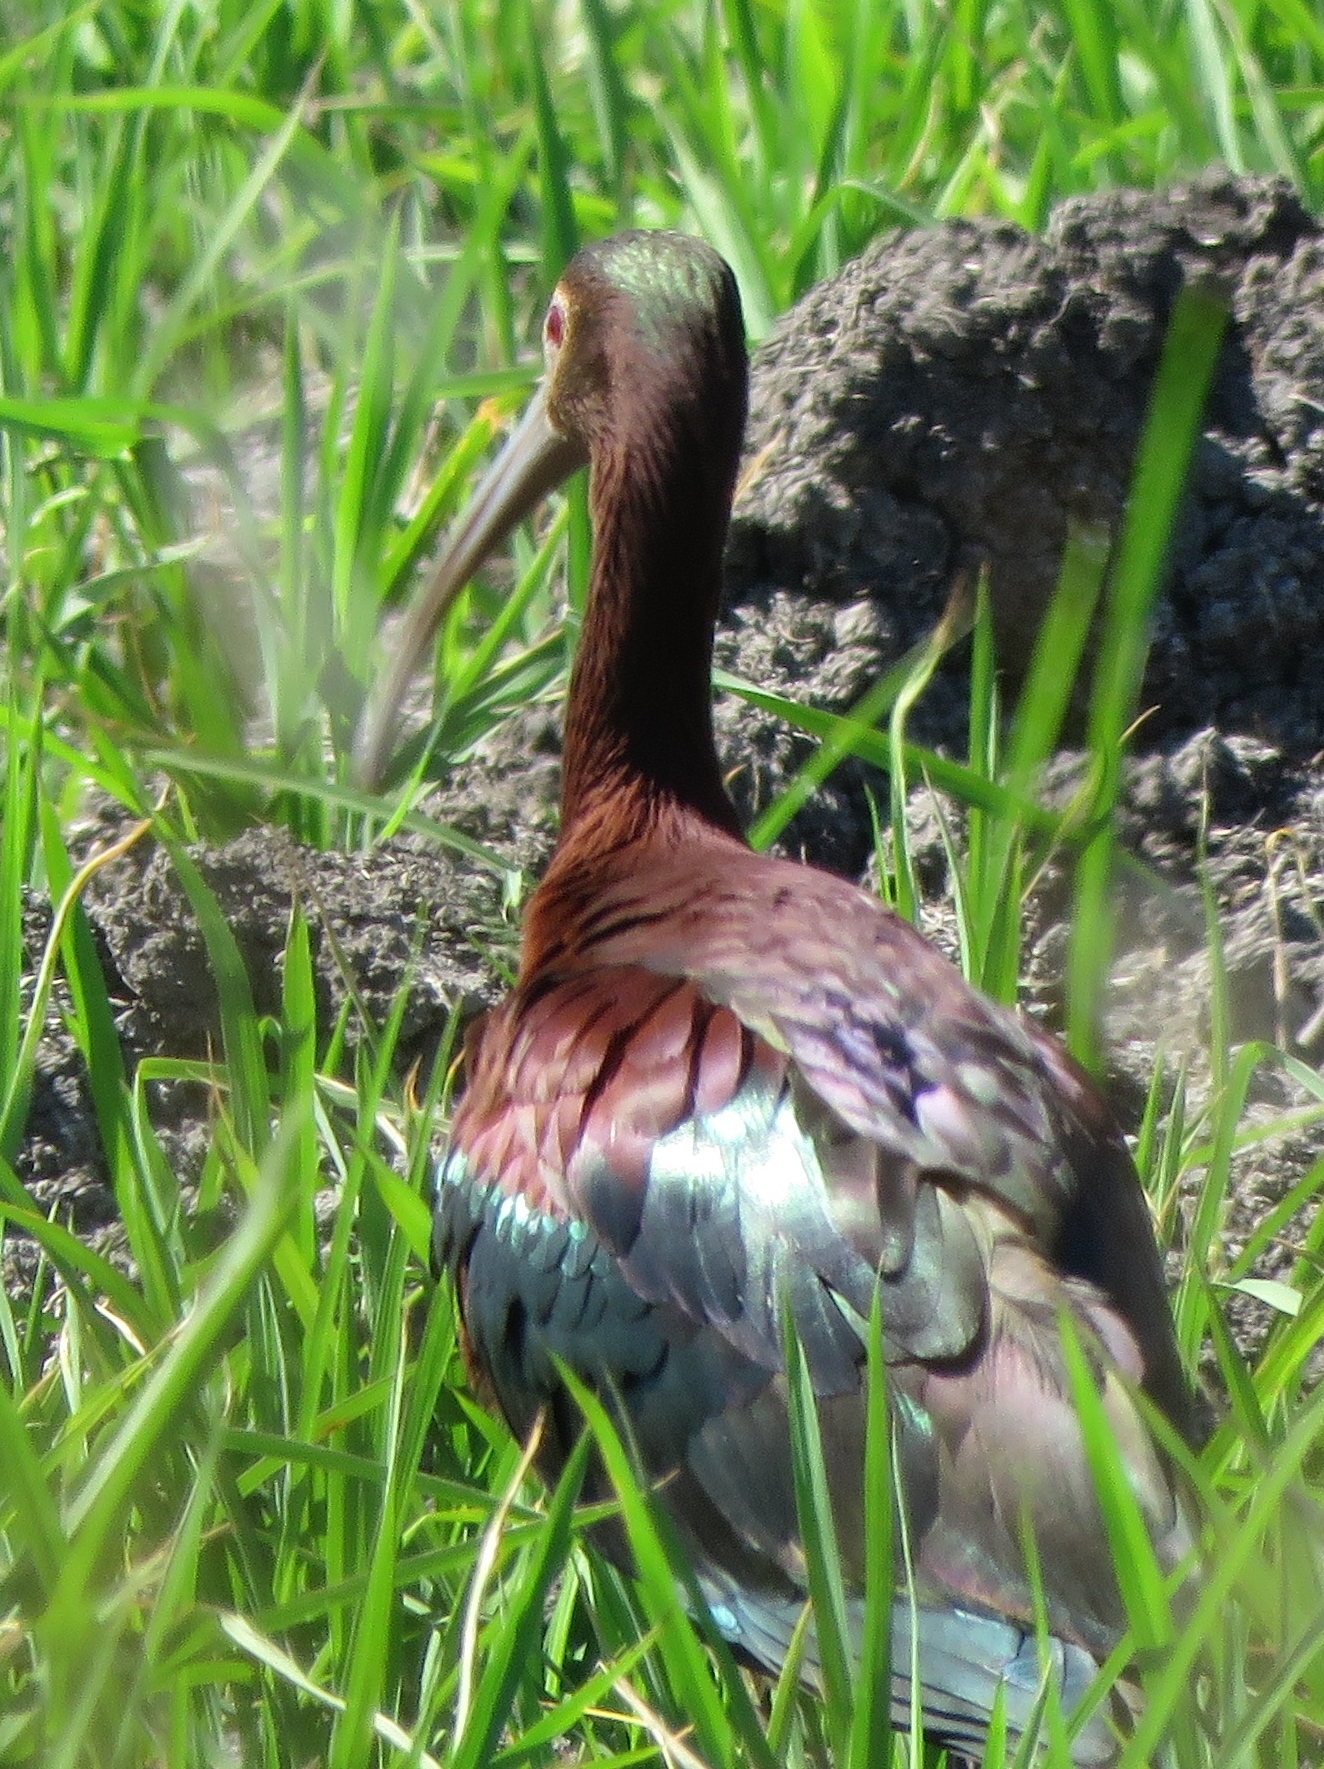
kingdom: Animalia
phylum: Chordata
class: Aves
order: Pelecaniformes
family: Threskiornithidae
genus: Plegadis
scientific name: Plegadis chihi
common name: White-faced ibis
